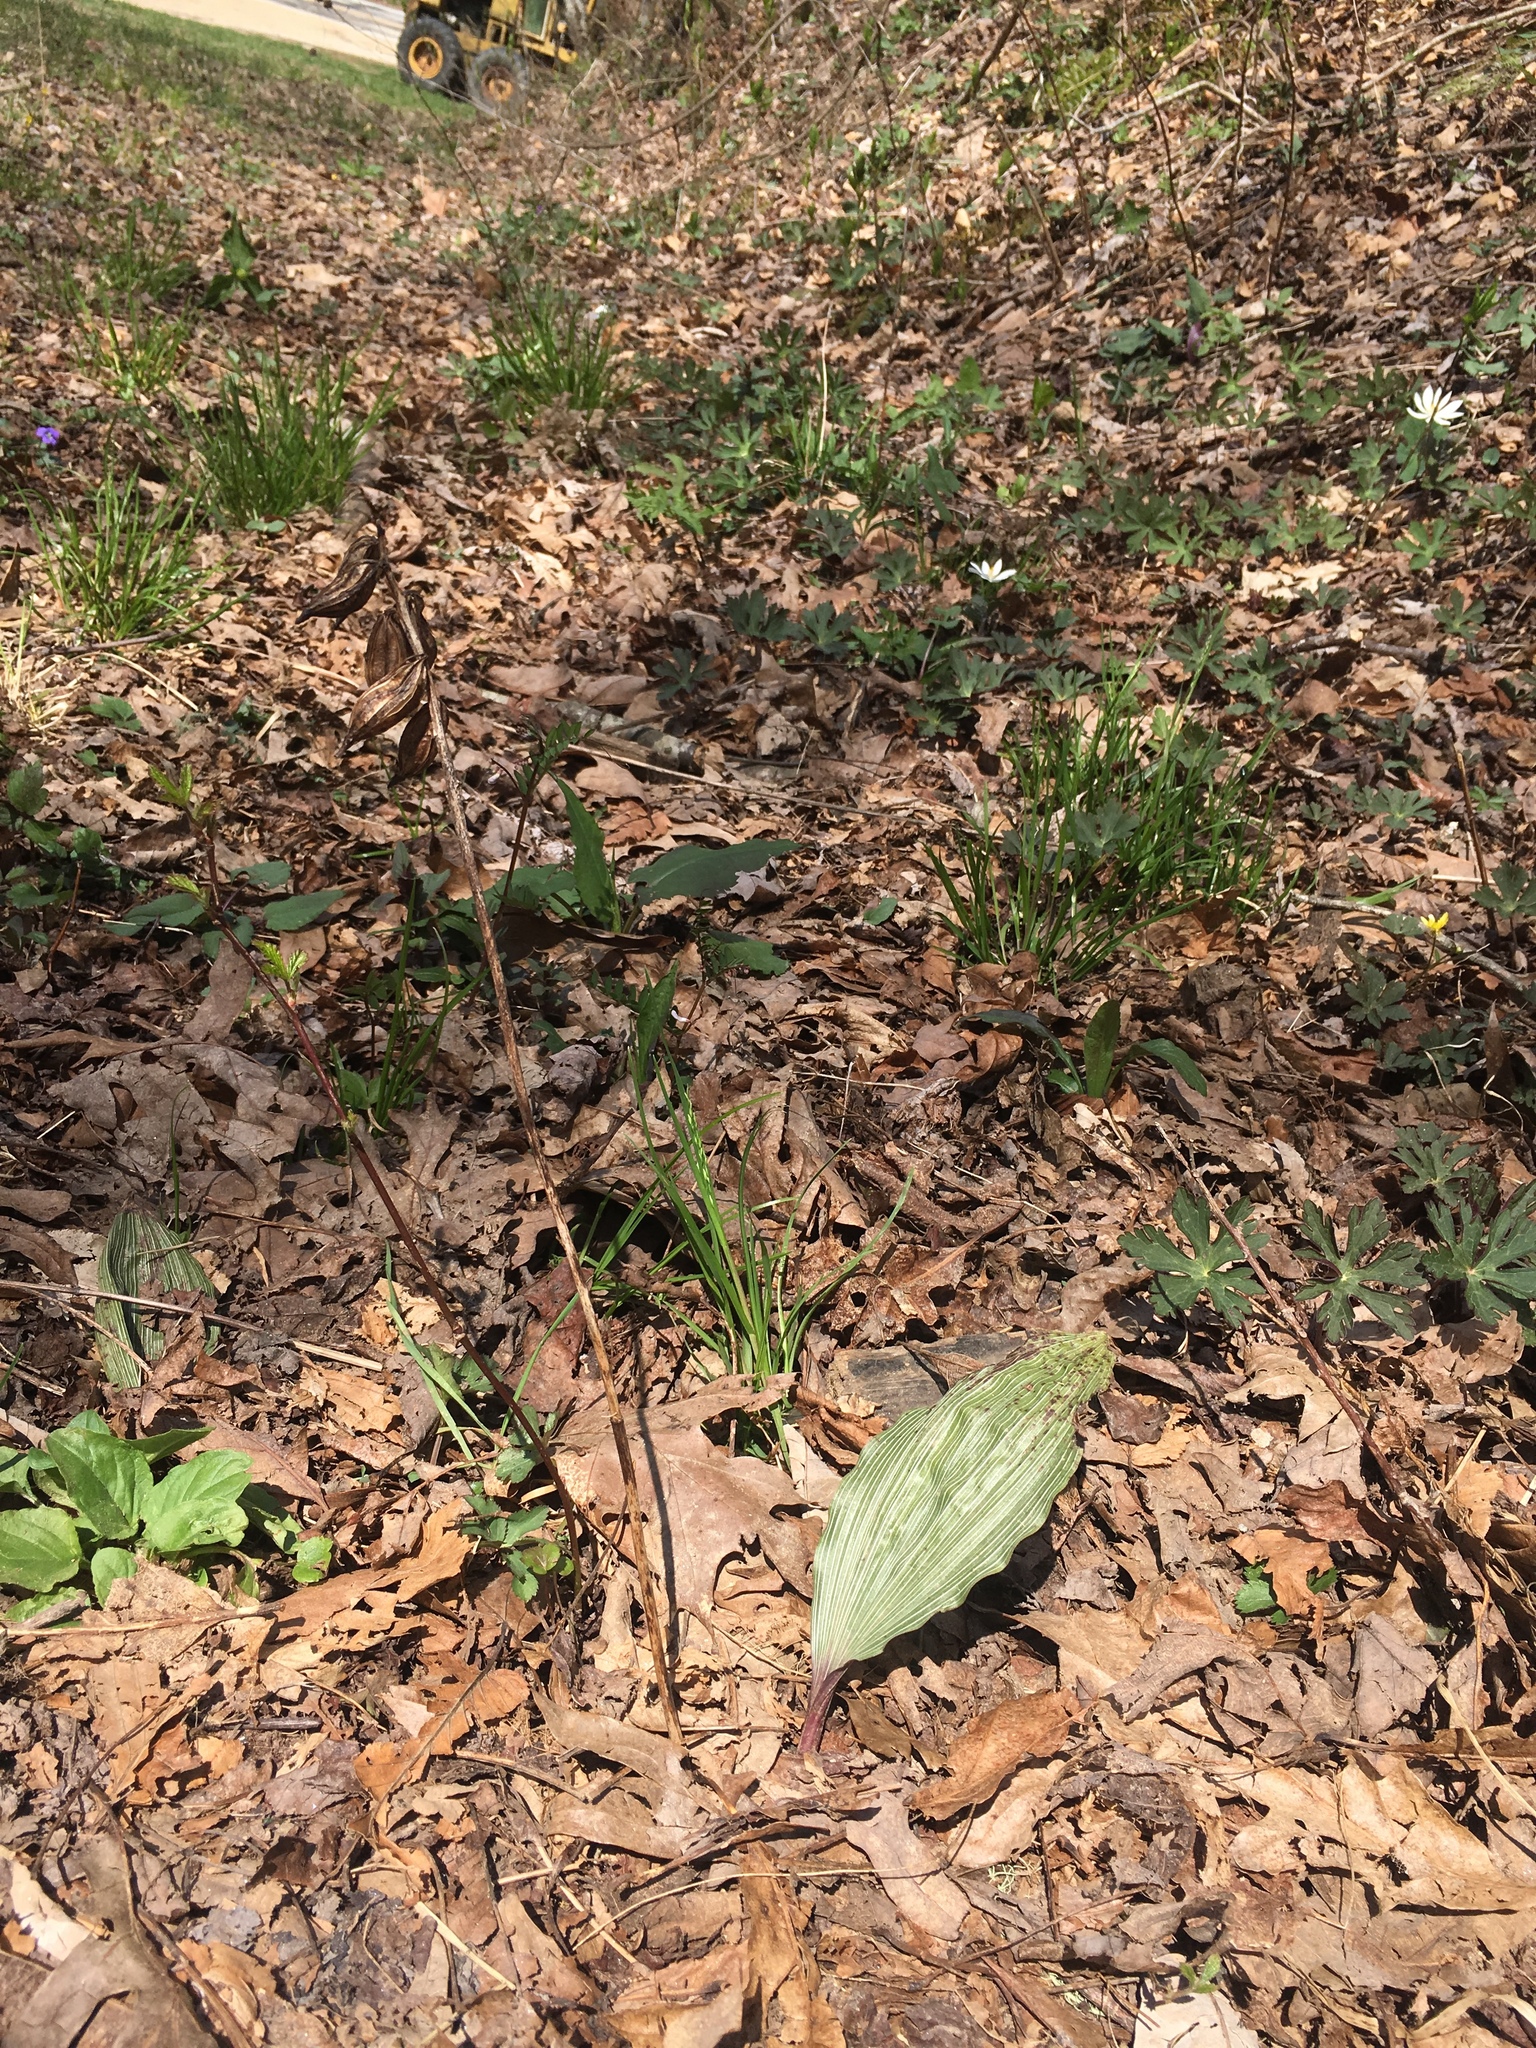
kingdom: Plantae
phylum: Tracheophyta
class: Liliopsida
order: Asparagales
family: Orchidaceae
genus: Aplectrum
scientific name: Aplectrum hyemale
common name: Adam-and-eve
